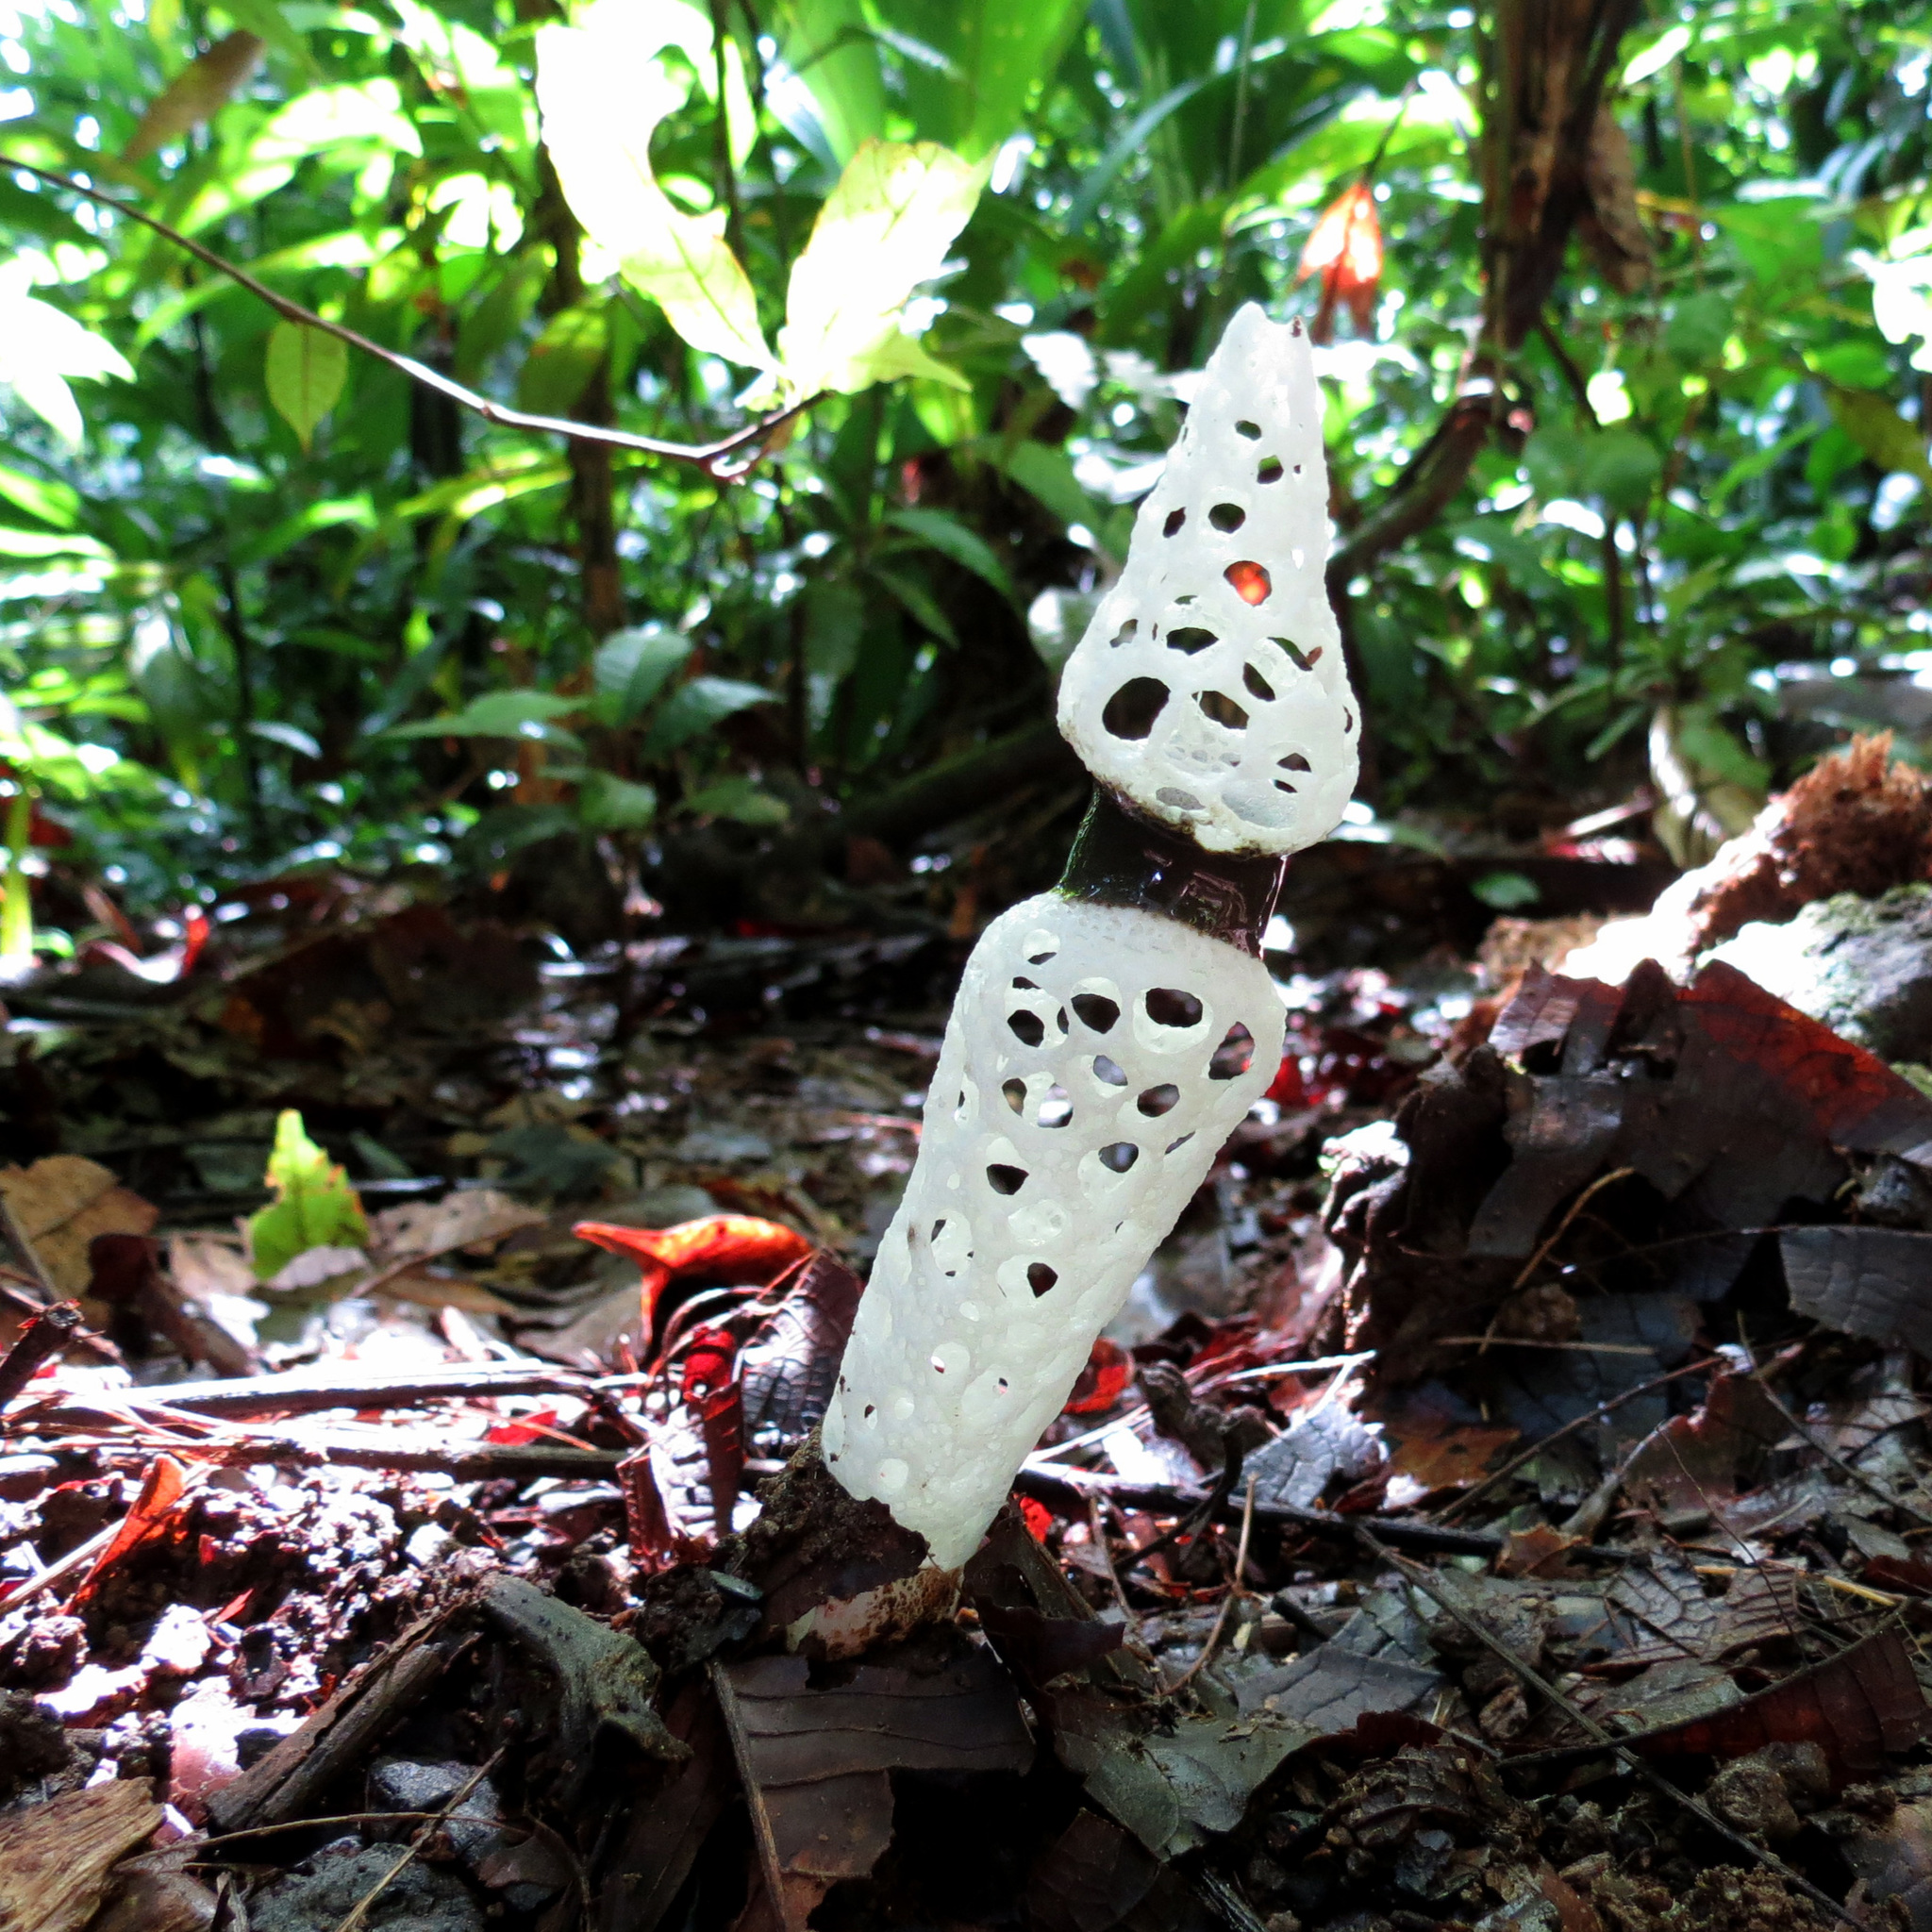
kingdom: Fungi
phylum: Basidiomycota
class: Agaricomycetes
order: Phallales
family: Phallaceae
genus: Staheliomyces
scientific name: Staheliomyces cinctus
